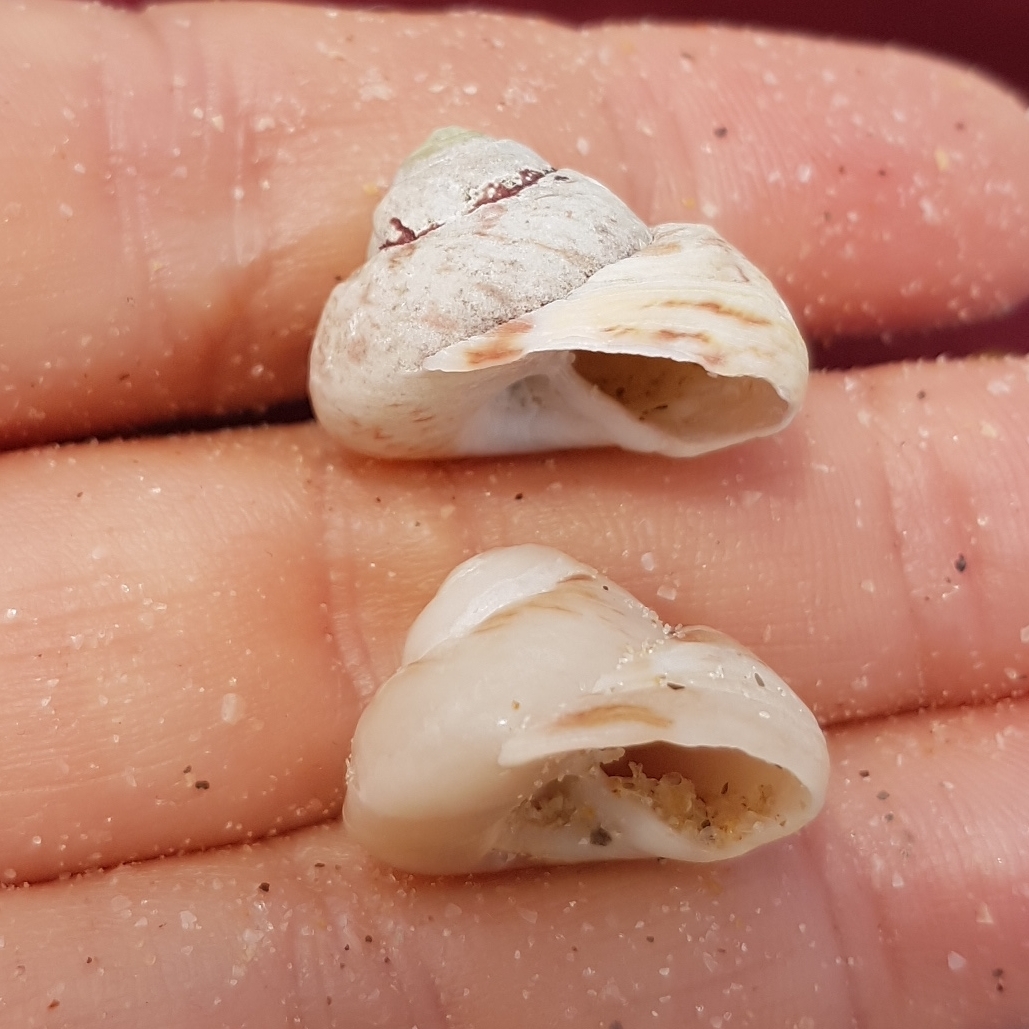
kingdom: Animalia
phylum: Mollusca
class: Gastropoda
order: Trochida
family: Trochidae
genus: Gibbula
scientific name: Gibbula magus
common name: Turban top shell
